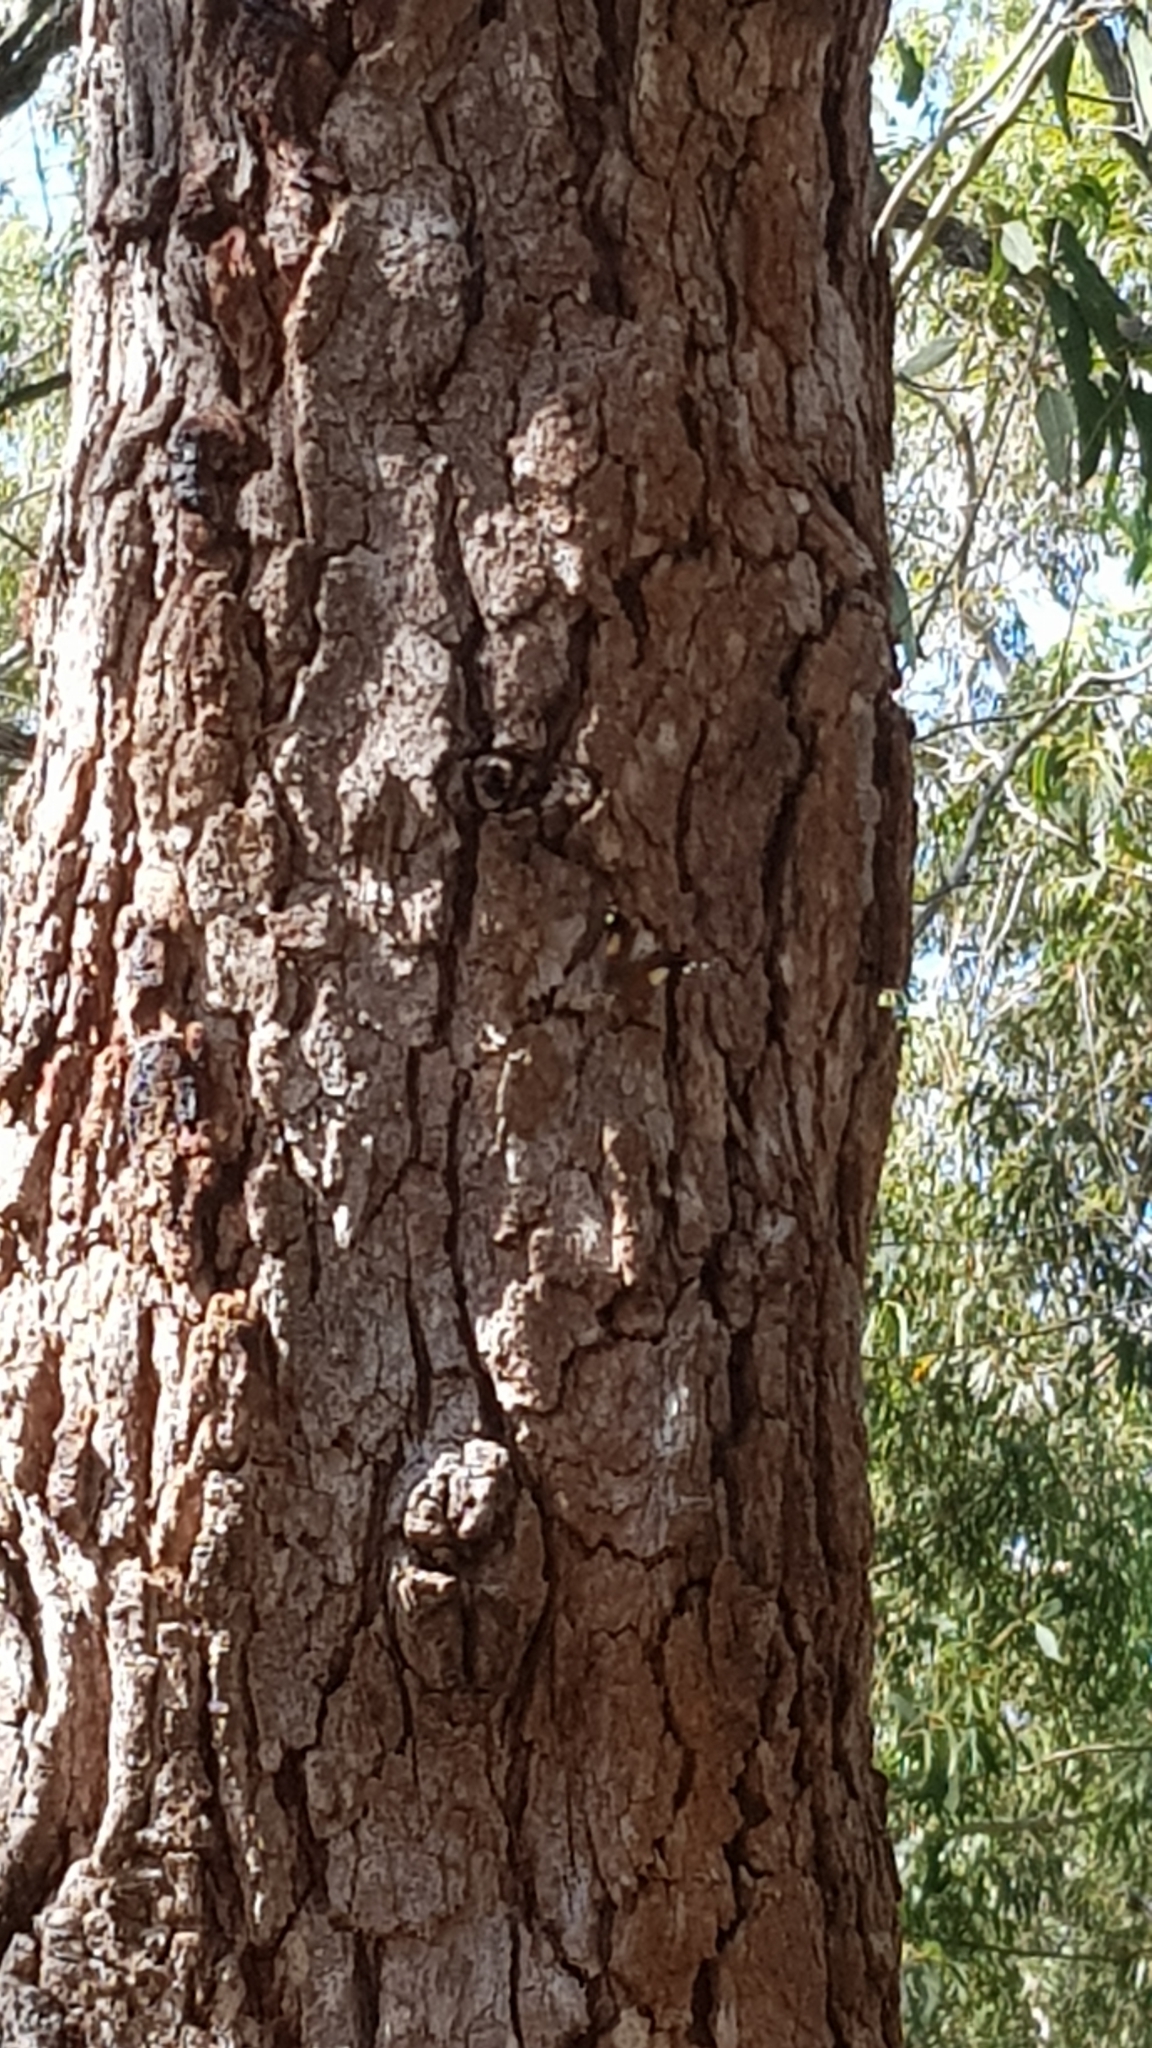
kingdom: Animalia
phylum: Arthropoda
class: Insecta
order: Lepidoptera
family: Nymphalidae
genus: Vanessa
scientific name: Vanessa itea
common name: Yellow admiral
